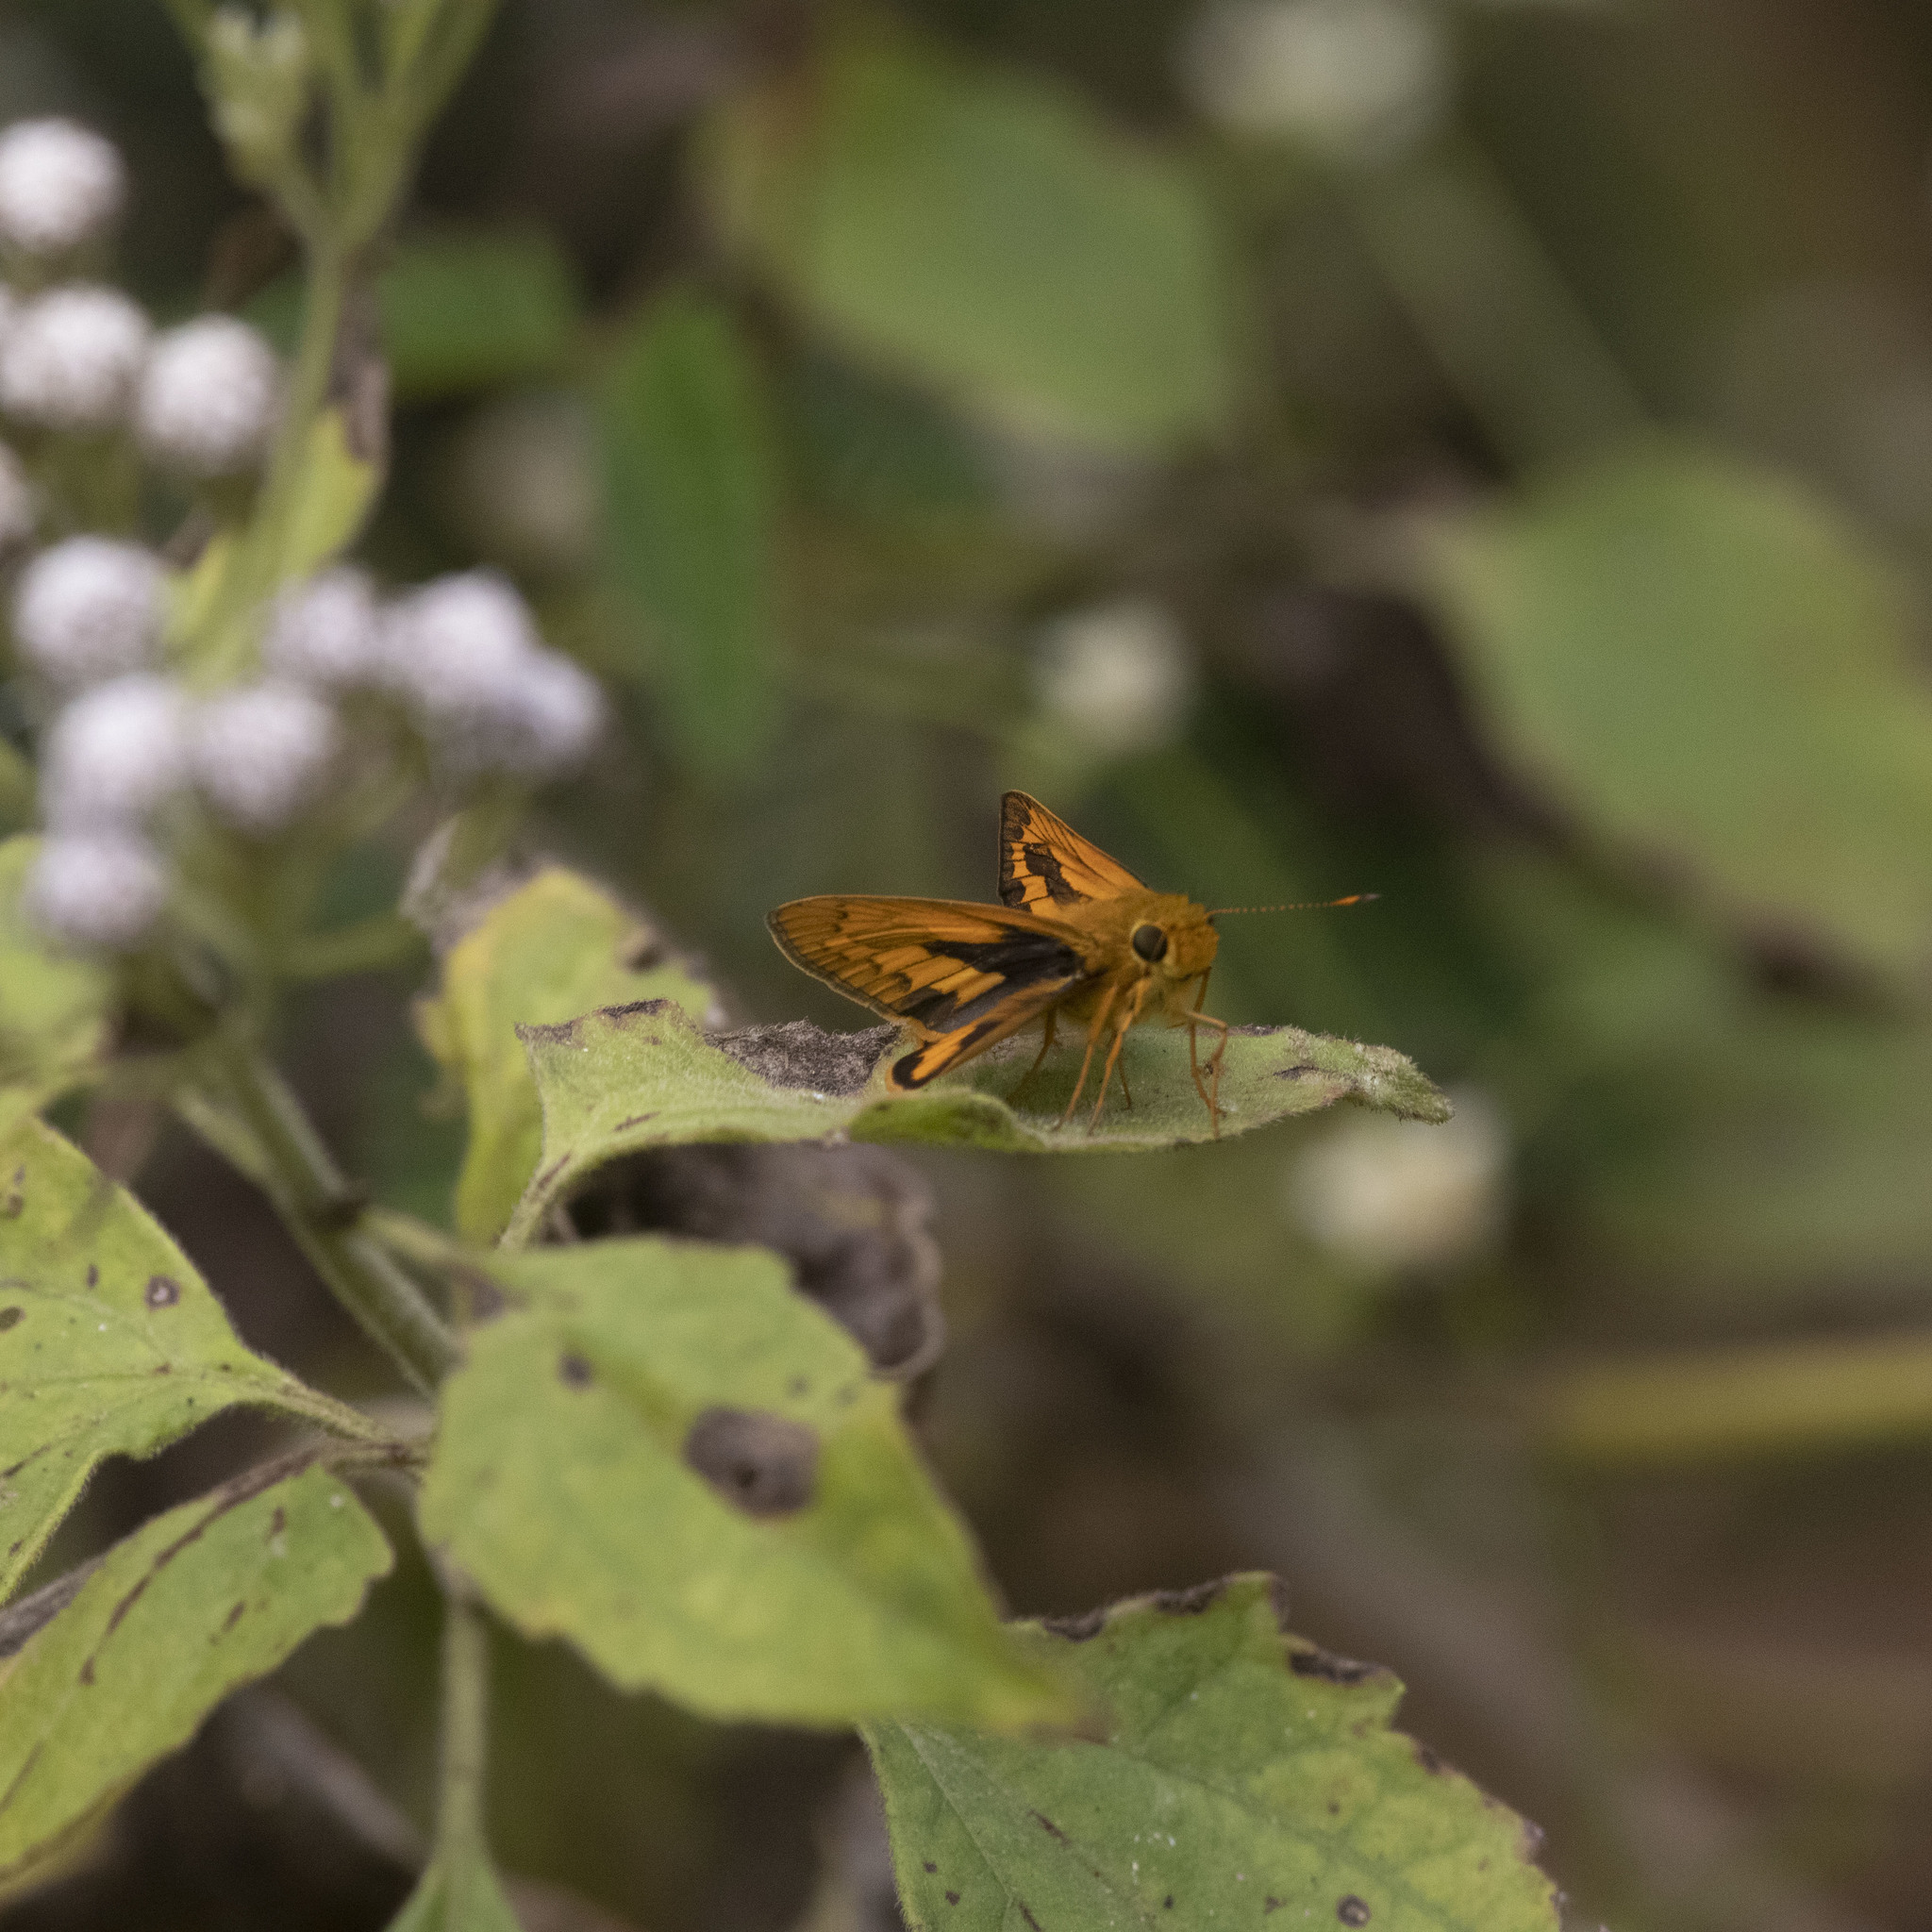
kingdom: Animalia
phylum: Arthropoda
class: Insecta
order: Lepidoptera
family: Hesperiidae
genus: Telicota
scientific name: Telicota bambusae
